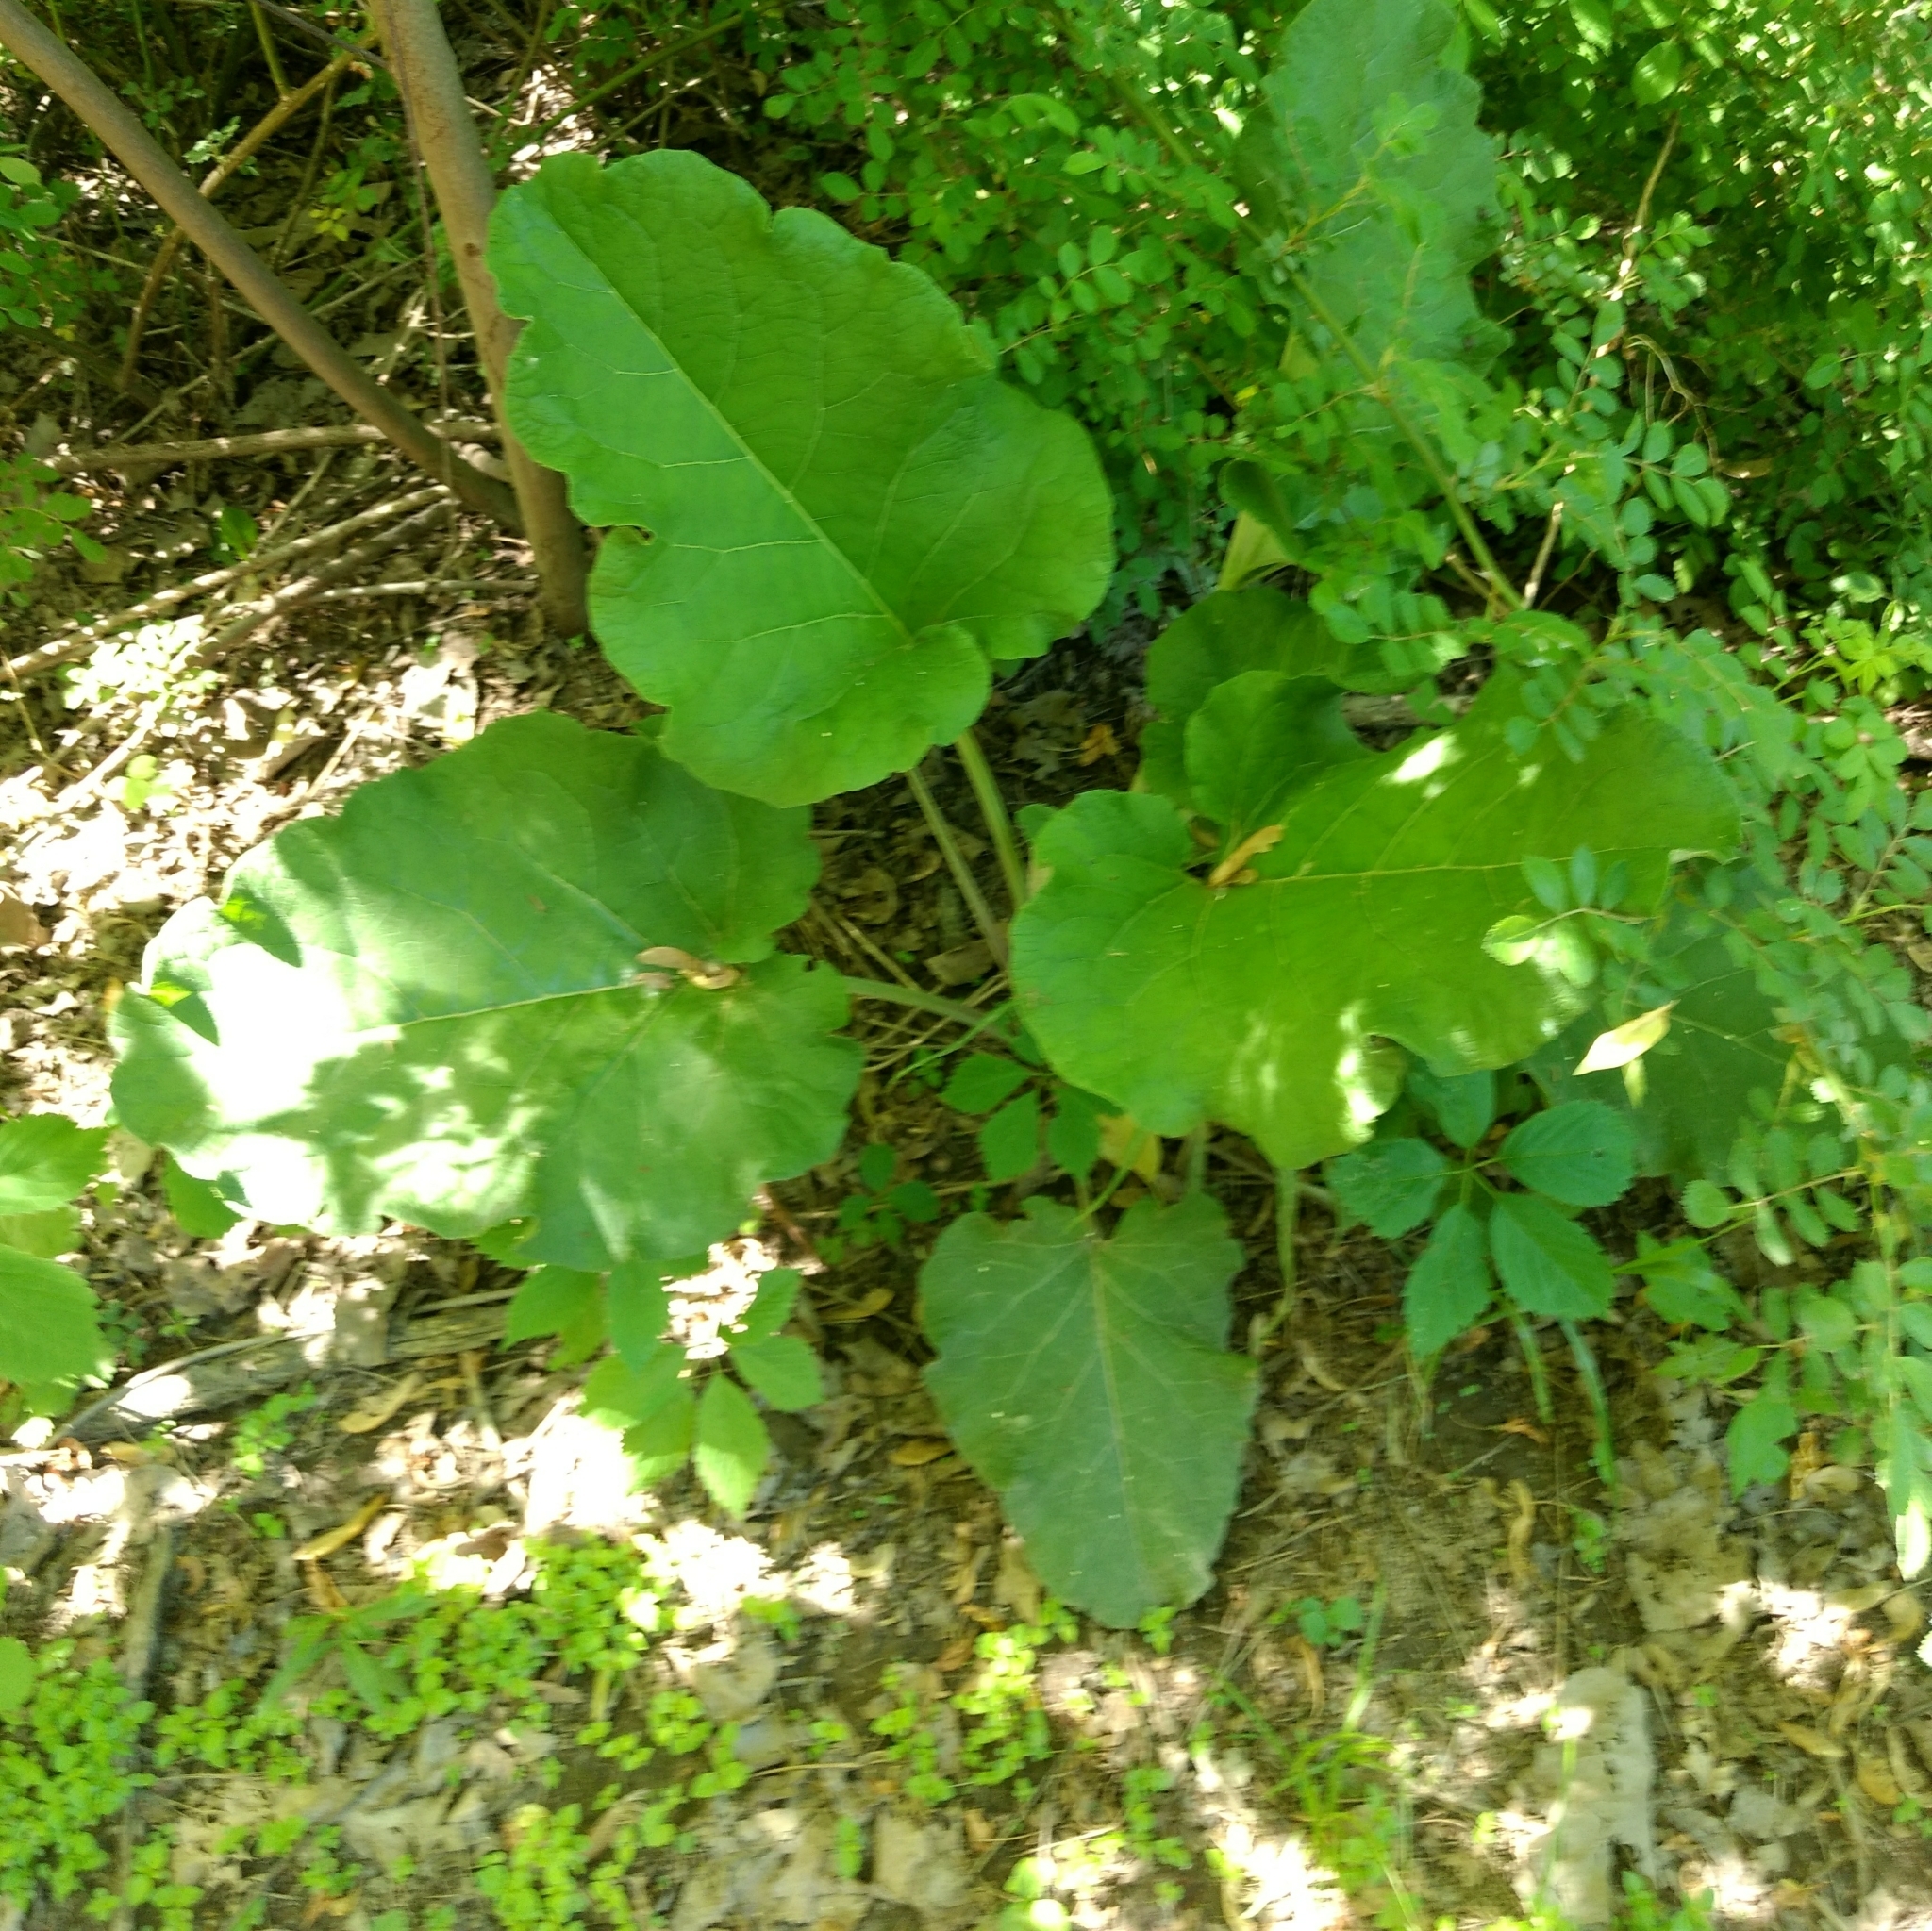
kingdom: Plantae
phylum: Tracheophyta
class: Magnoliopsida
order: Asterales
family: Asteraceae
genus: Arctium
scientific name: Arctium
